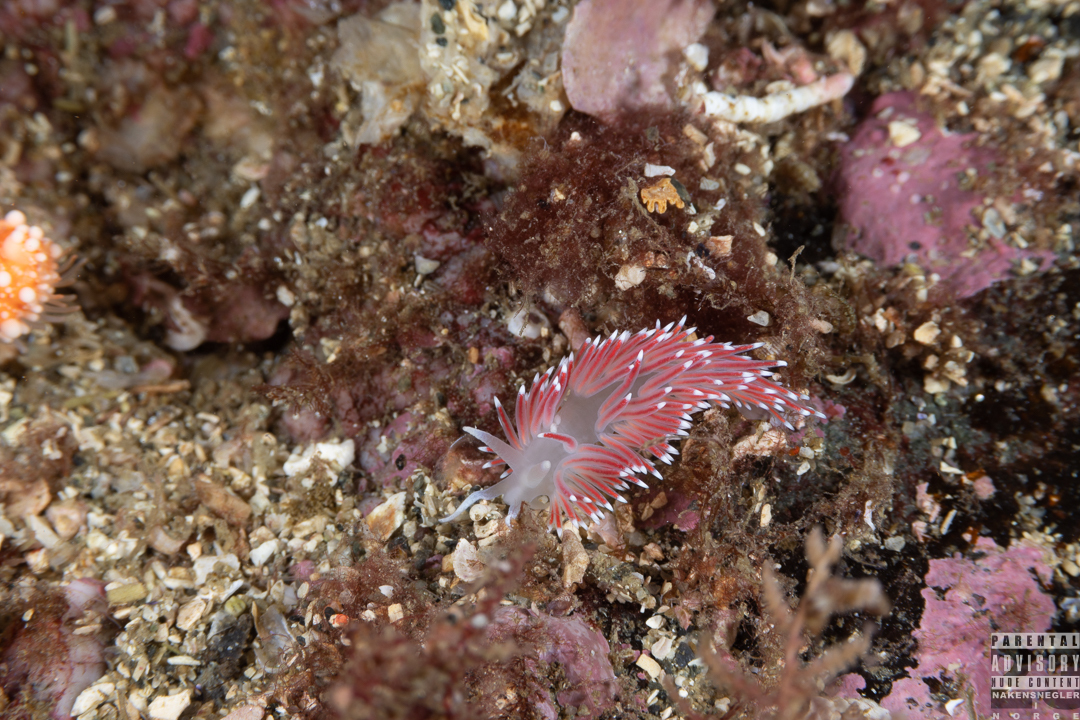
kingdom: Animalia
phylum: Mollusca
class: Gastropoda
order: Nudibranchia
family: Flabellinidae
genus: Carronella
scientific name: Carronella pellucida
